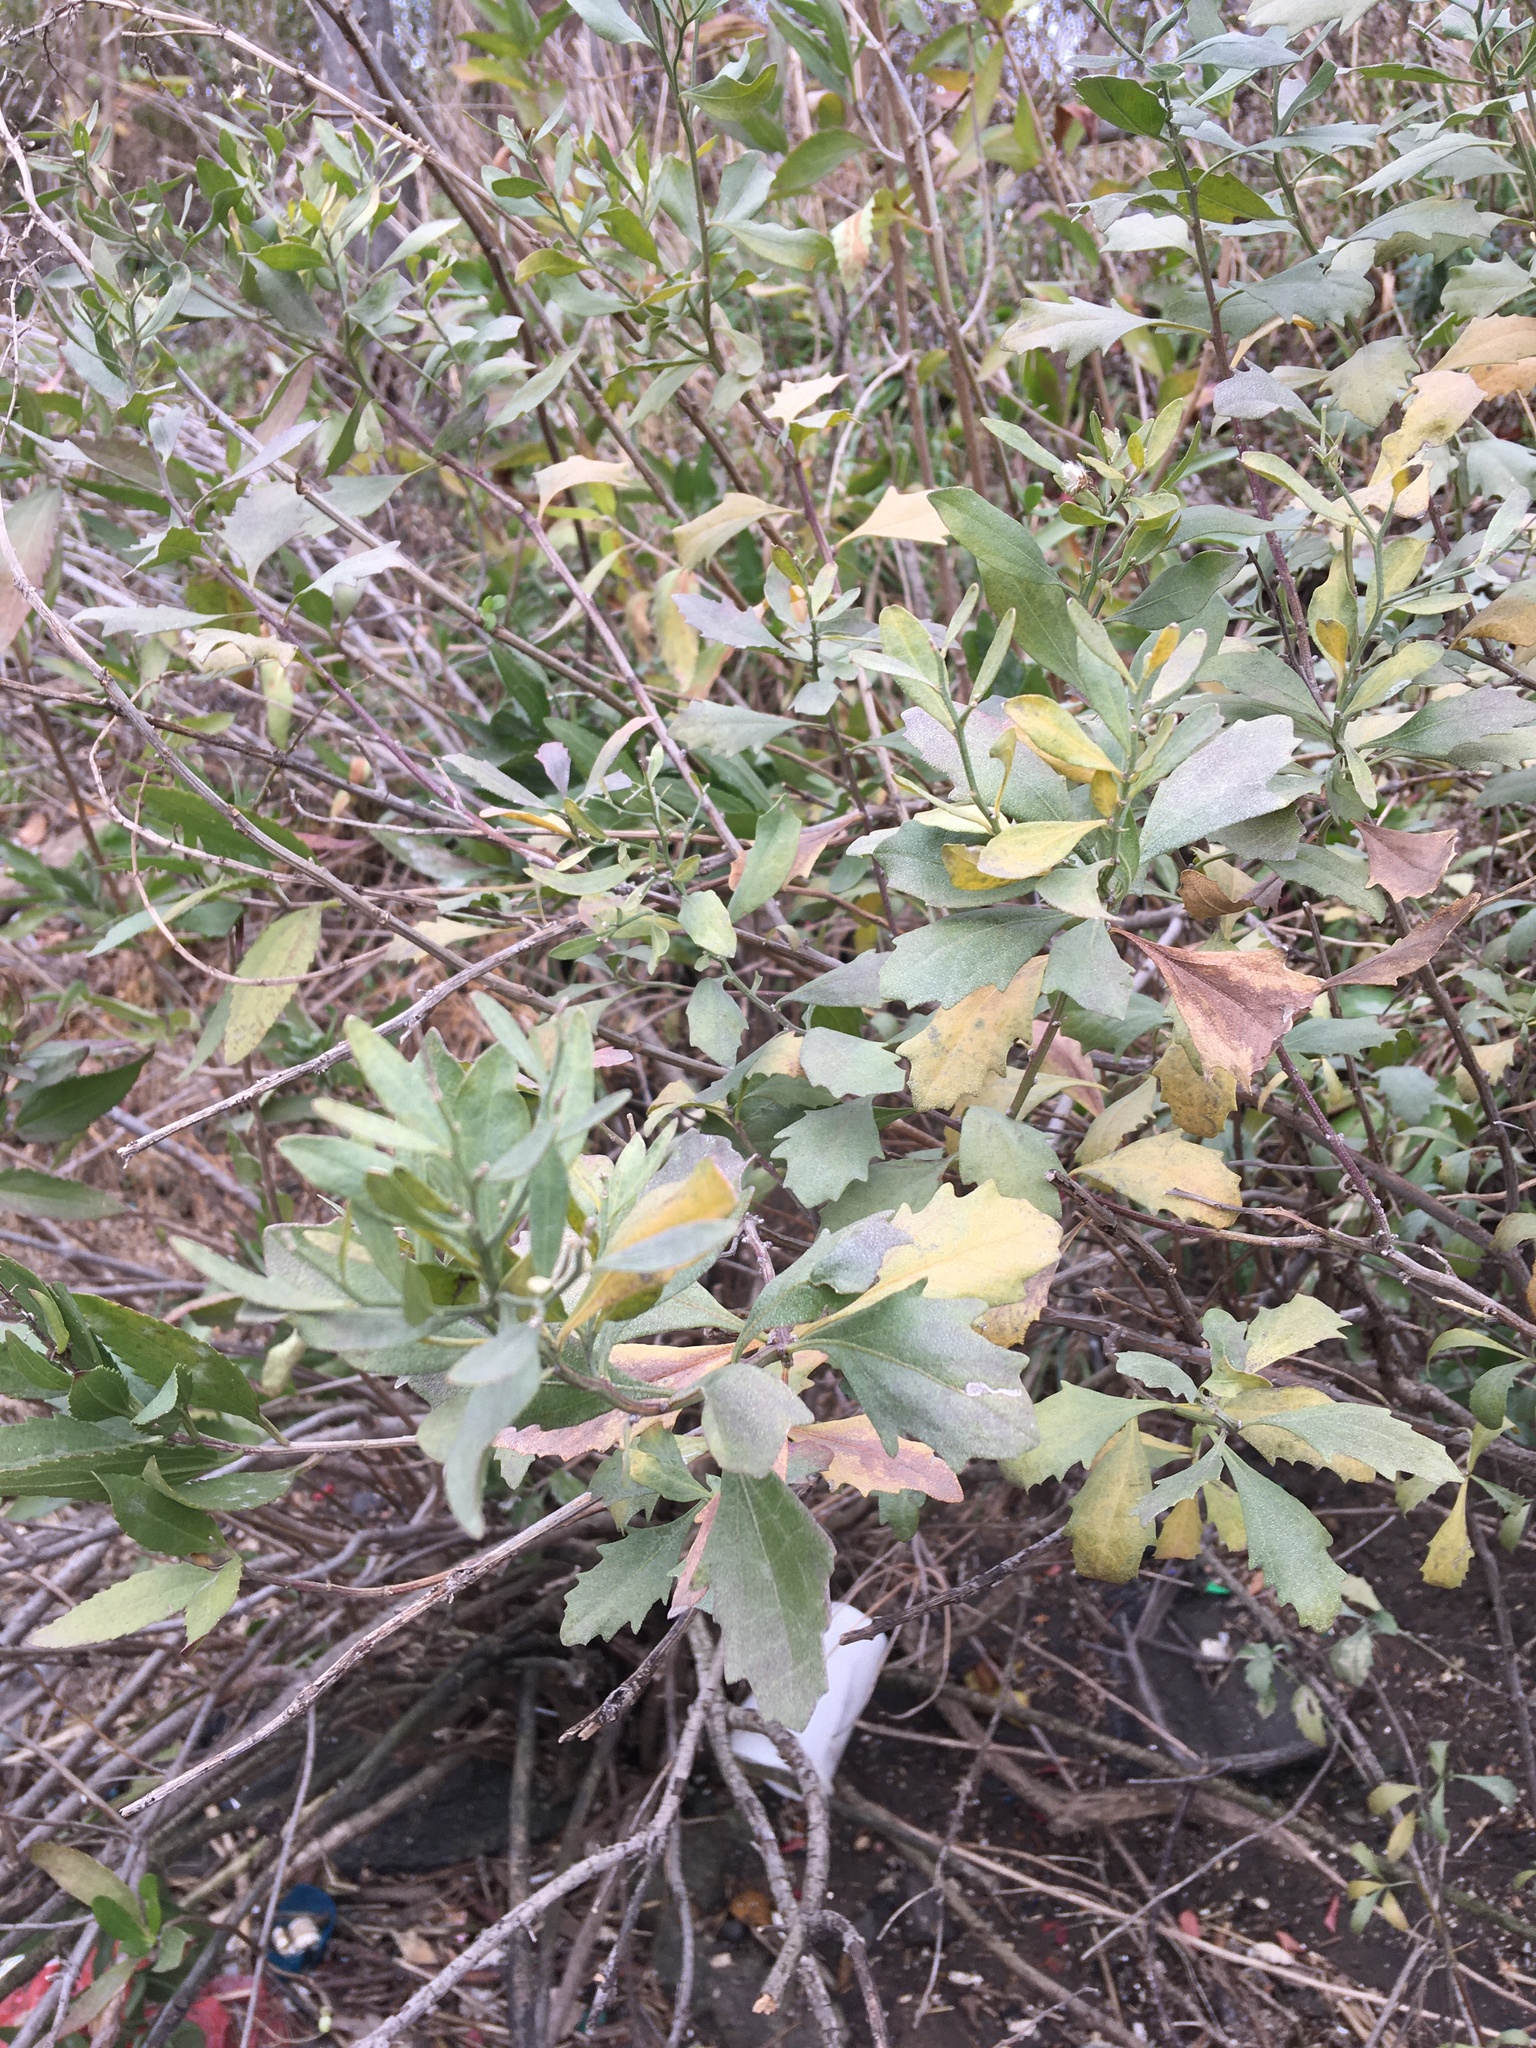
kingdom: Plantae
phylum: Tracheophyta
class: Magnoliopsida
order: Asterales
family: Asteraceae
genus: Baccharis
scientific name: Baccharis halimifolia
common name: Eastern baccharis
